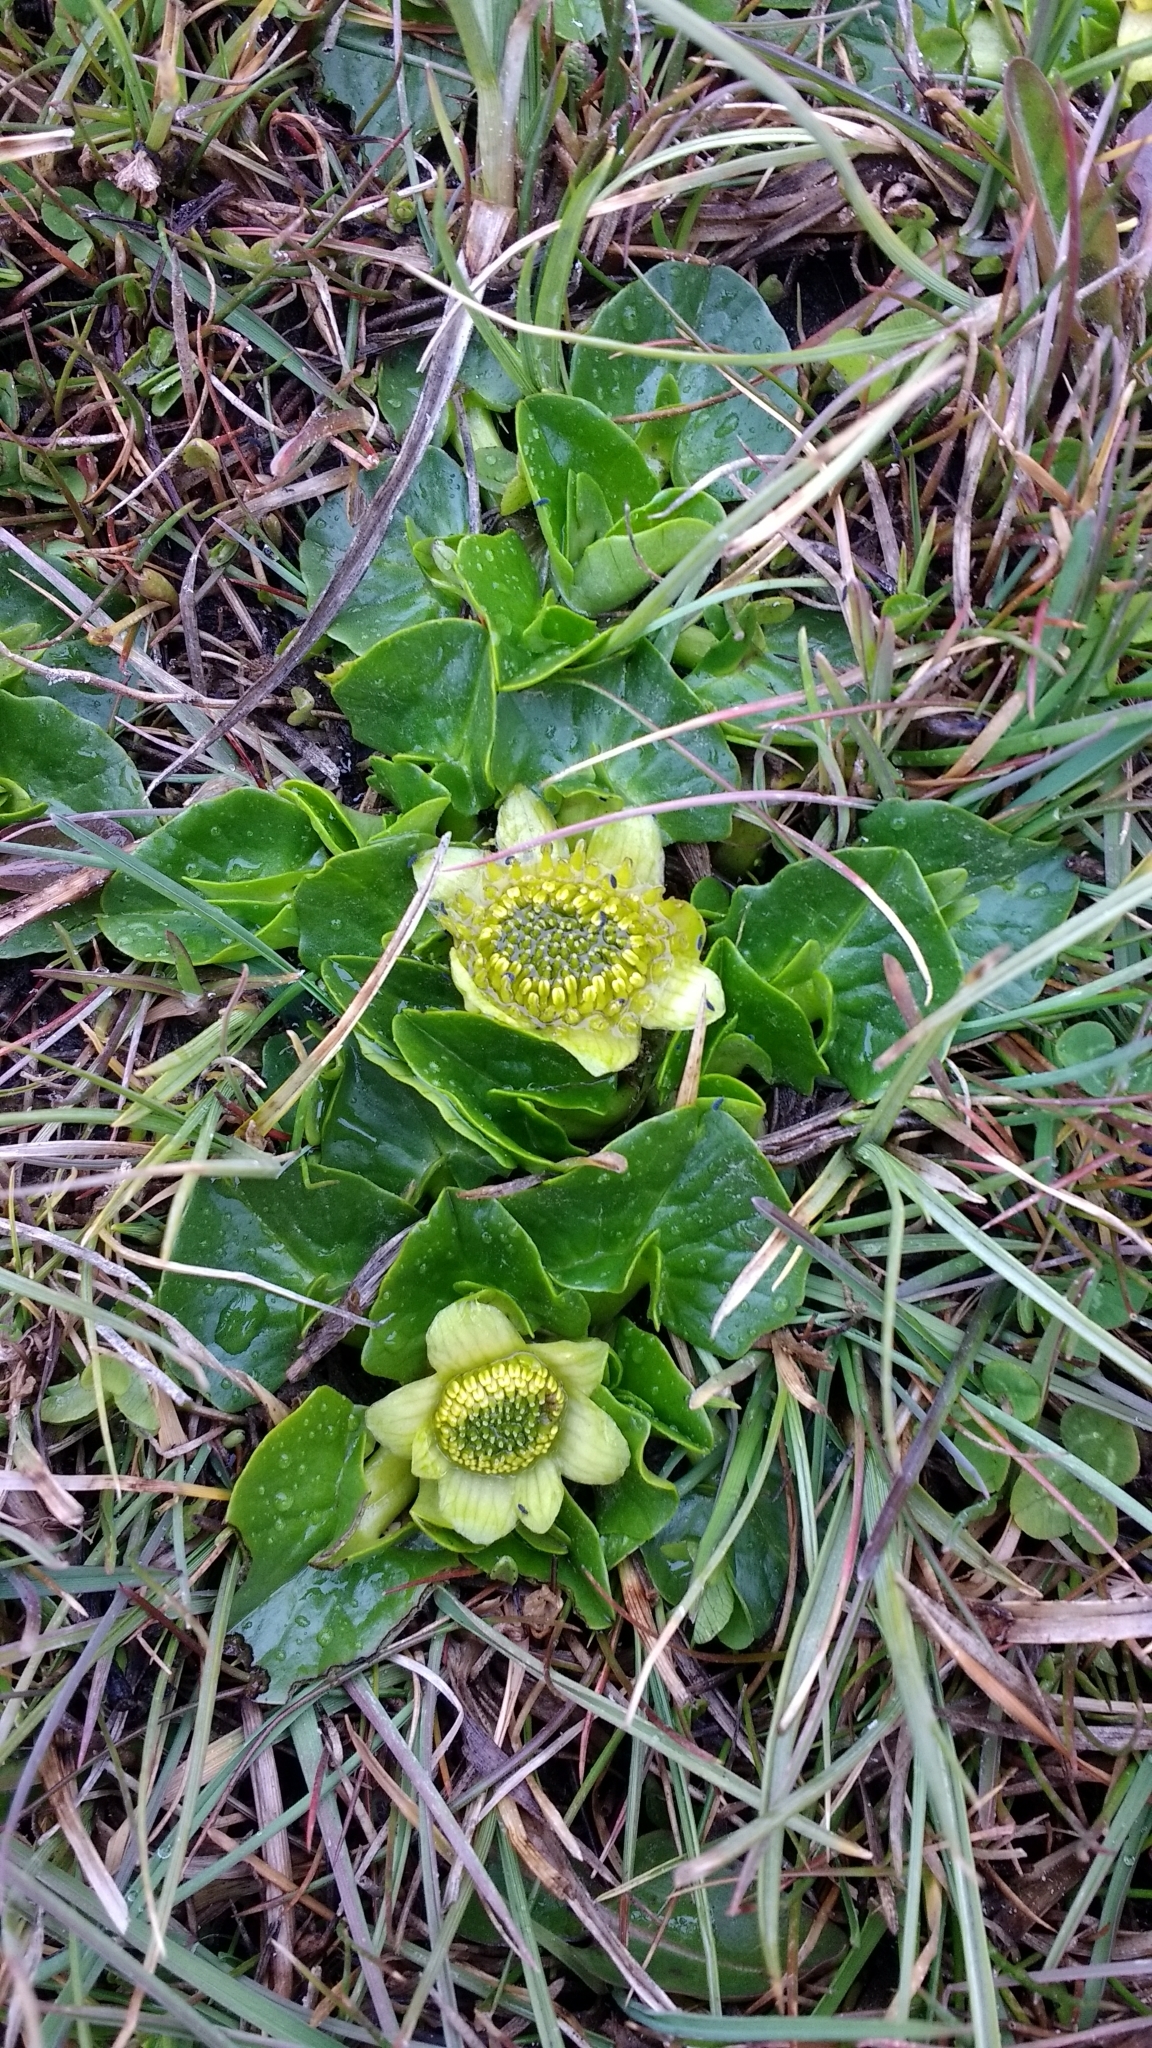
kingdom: Plantae
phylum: Tracheophyta
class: Magnoliopsida
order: Ranunculales
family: Ranunculaceae
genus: Caltha
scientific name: Caltha sagittata
